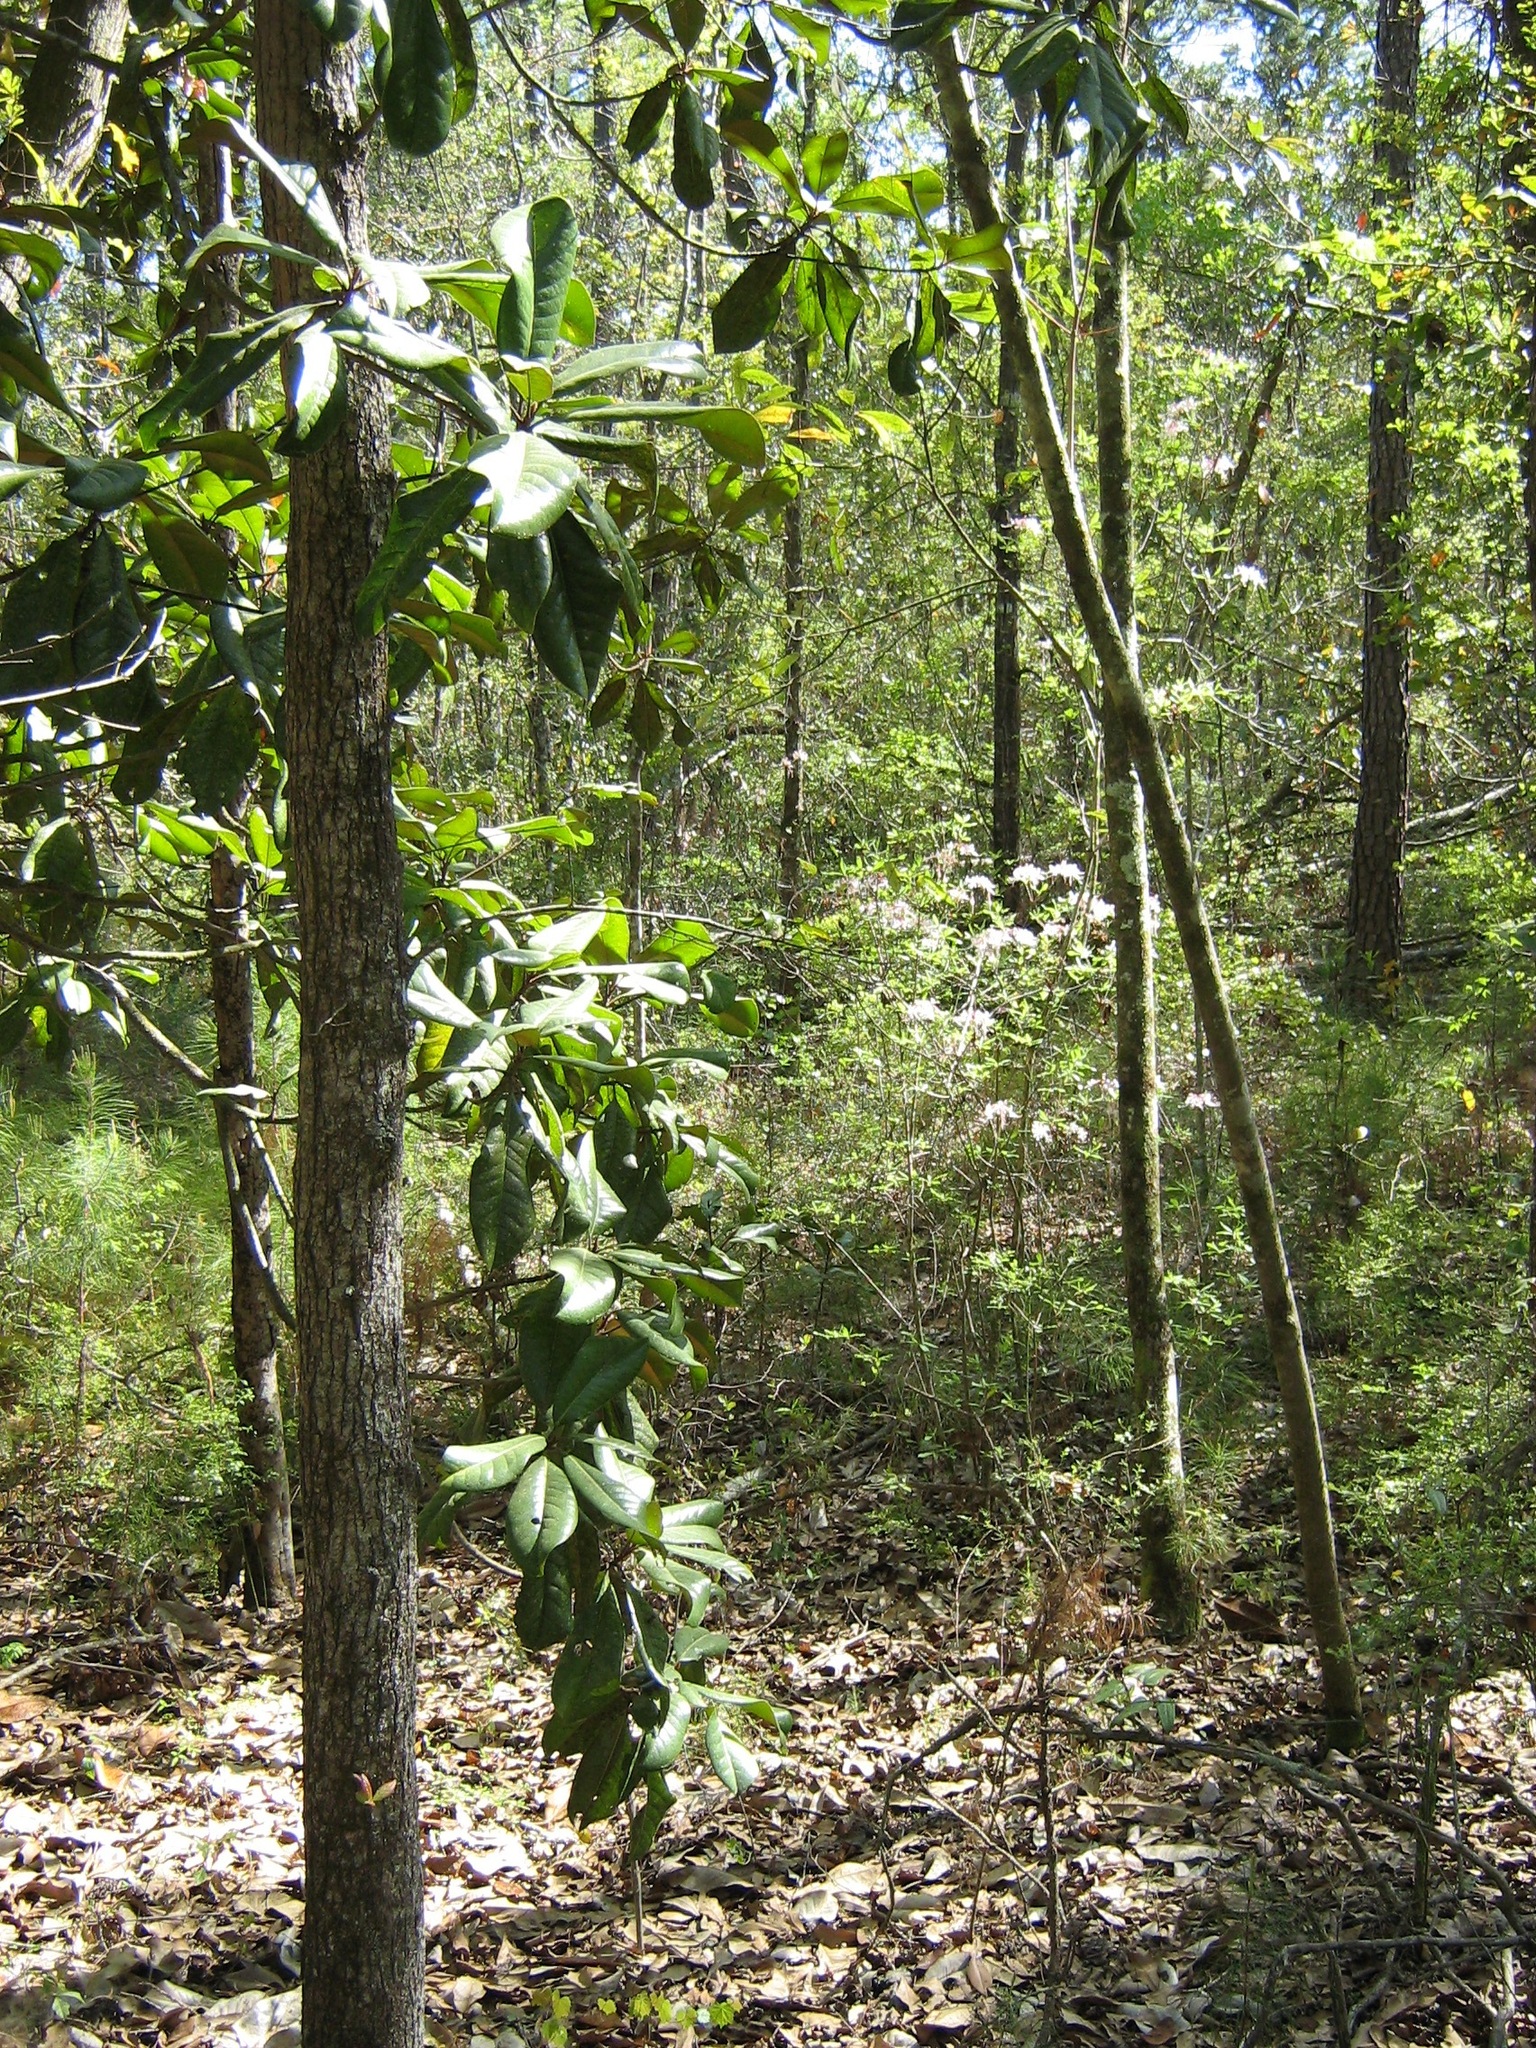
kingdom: Plantae
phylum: Tracheophyta
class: Magnoliopsida
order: Magnoliales
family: Magnoliaceae
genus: Magnolia
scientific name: Magnolia grandiflora
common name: Southern magnolia
